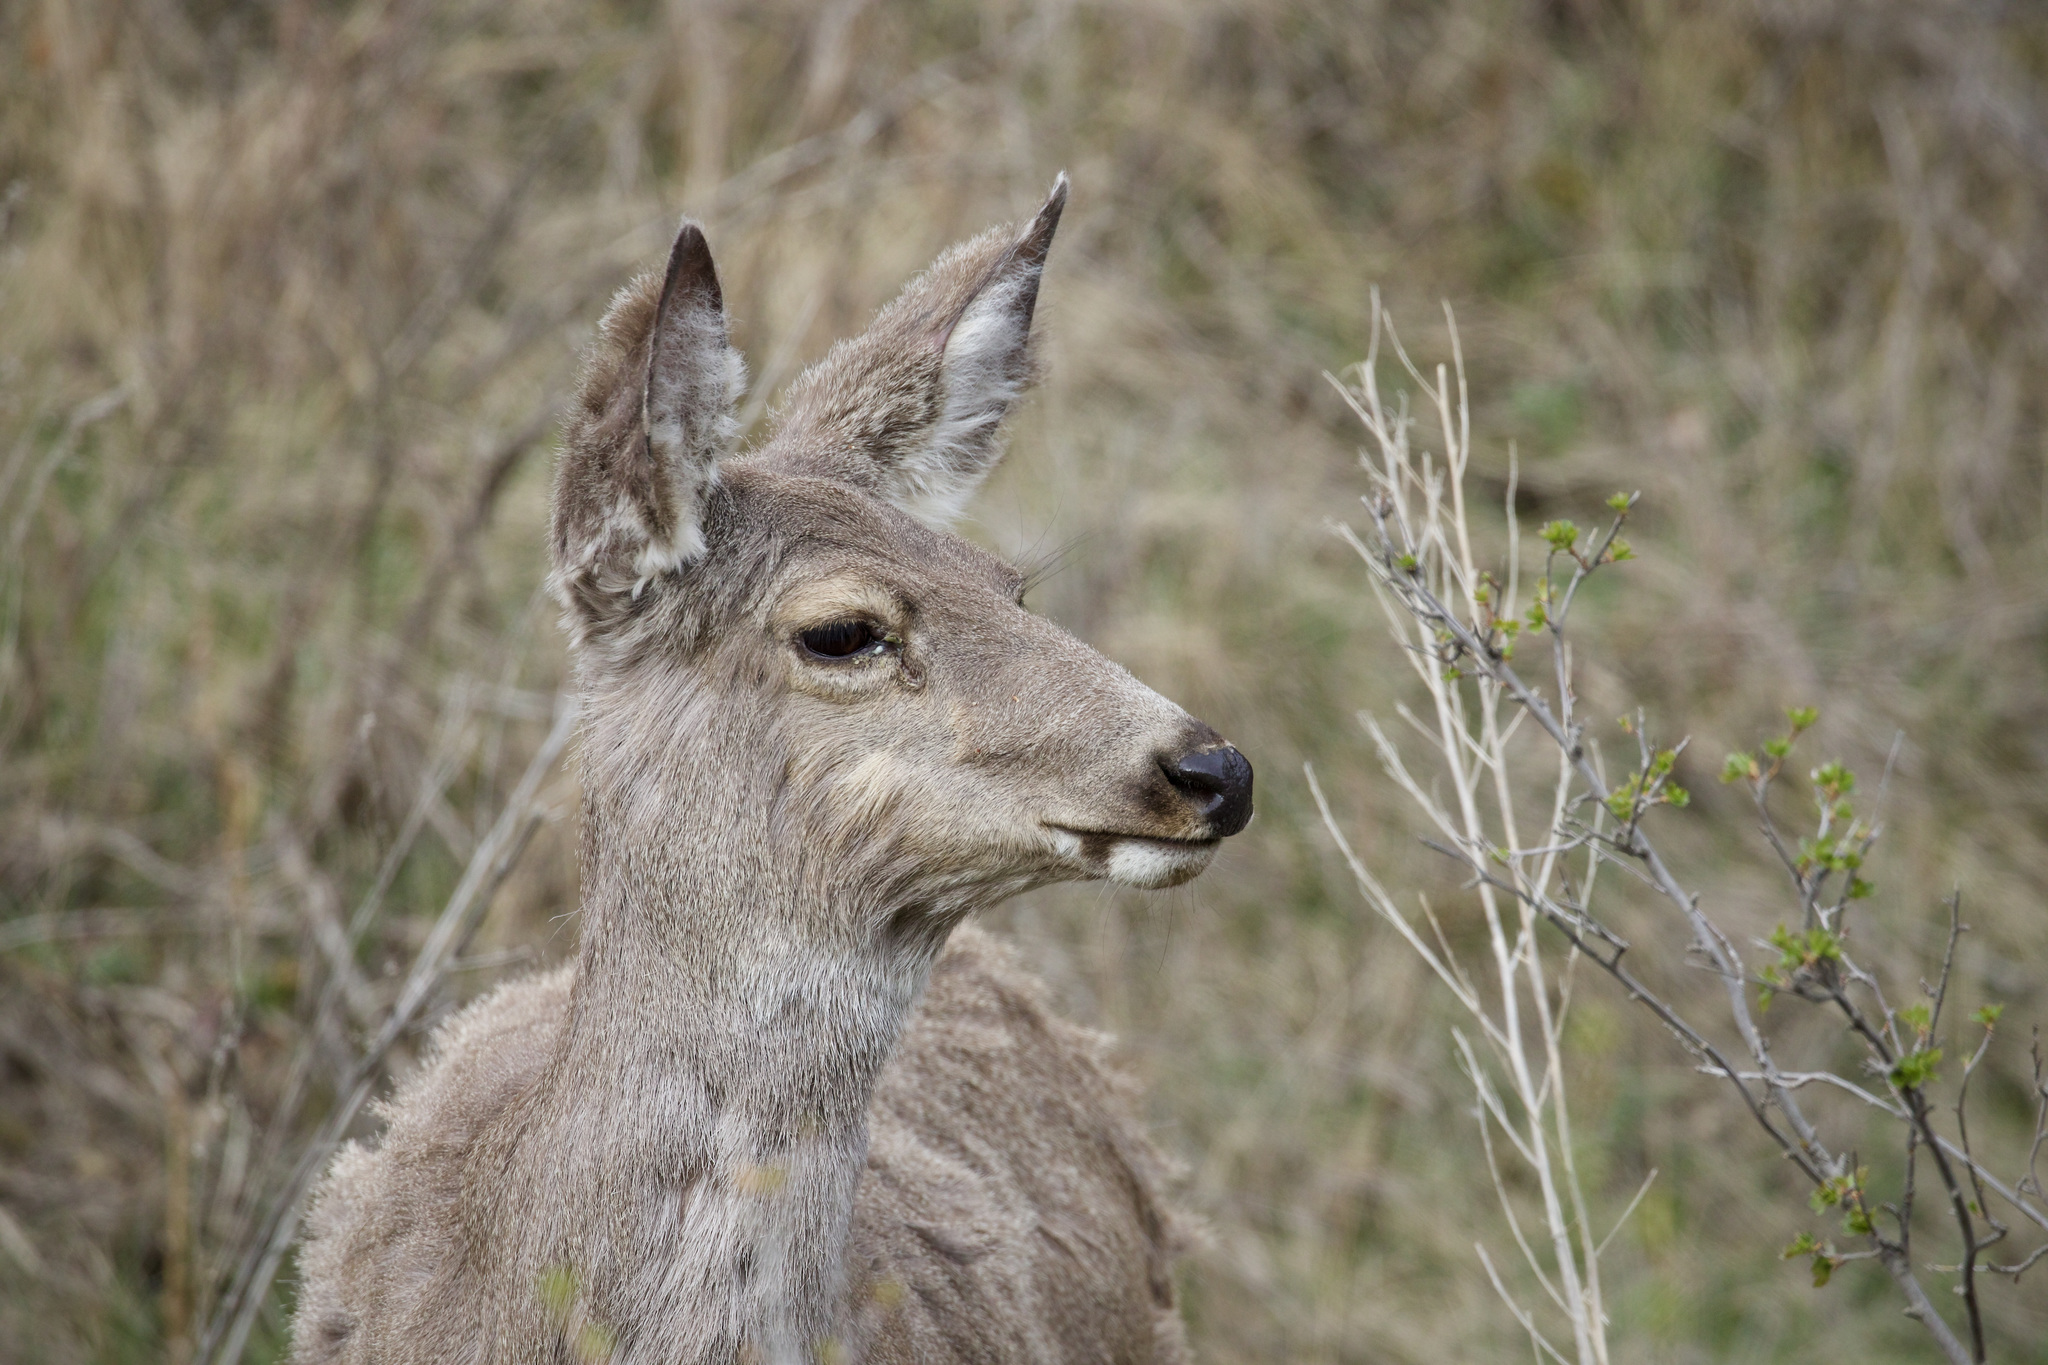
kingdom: Animalia
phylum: Chordata
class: Mammalia
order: Artiodactyla
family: Cervidae
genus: Odocoileus
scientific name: Odocoileus hemionus
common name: Mule deer
